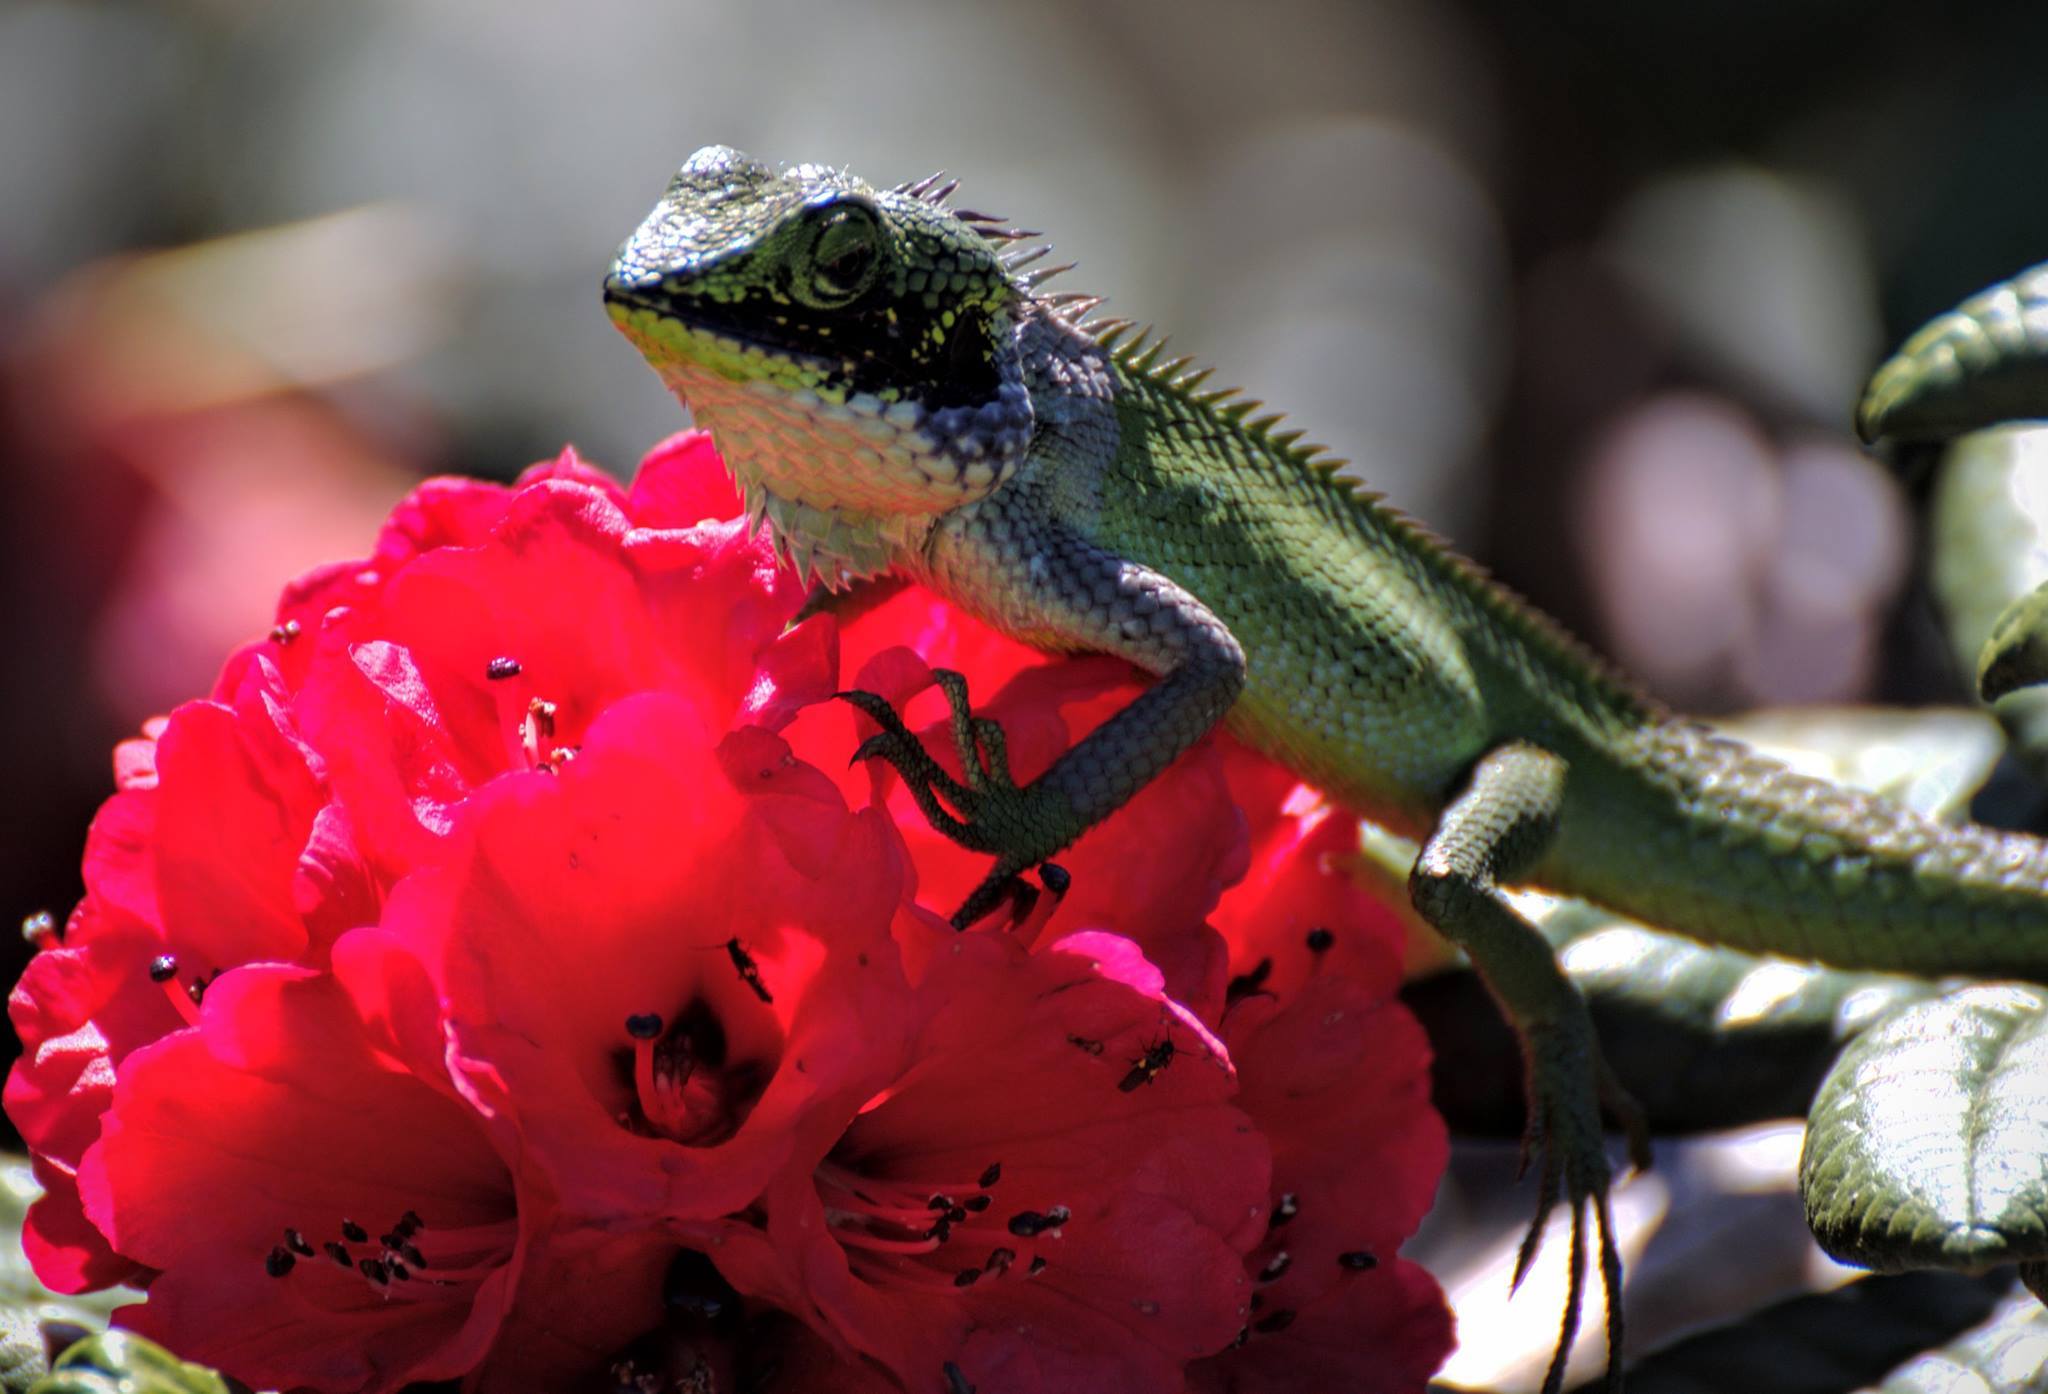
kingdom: Animalia
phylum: Chordata
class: Squamata
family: Agamidae
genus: Calotes
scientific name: Calotes nigrilabris
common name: Black-cheek lizard
